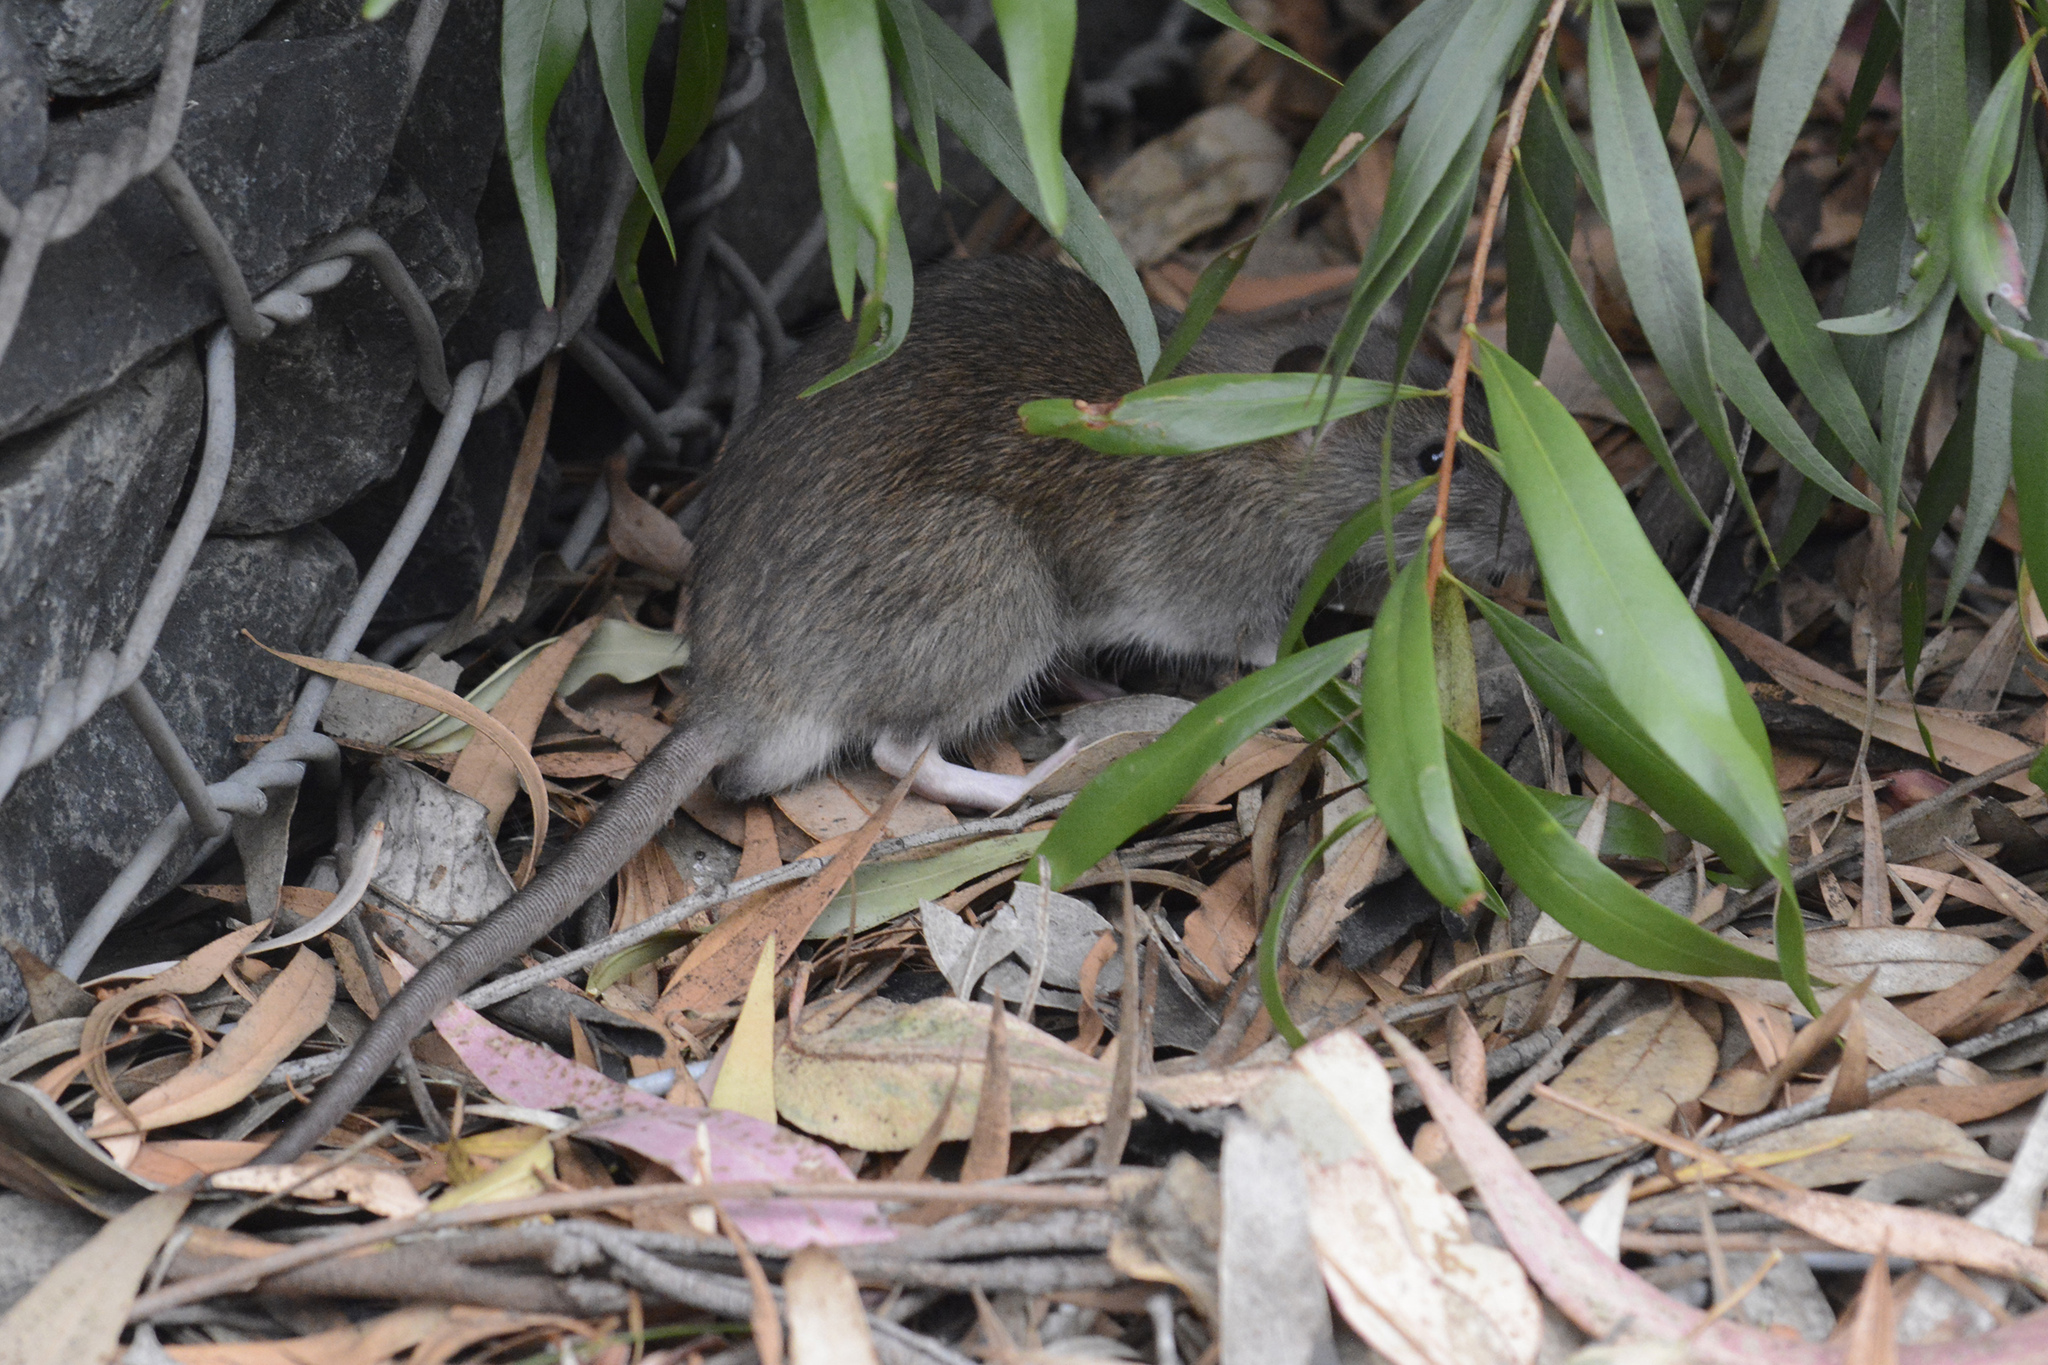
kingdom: Animalia
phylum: Chordata
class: Mammalia
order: Rodentia
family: Muridae
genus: Rattus
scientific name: Rattus rattus
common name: Black rat
